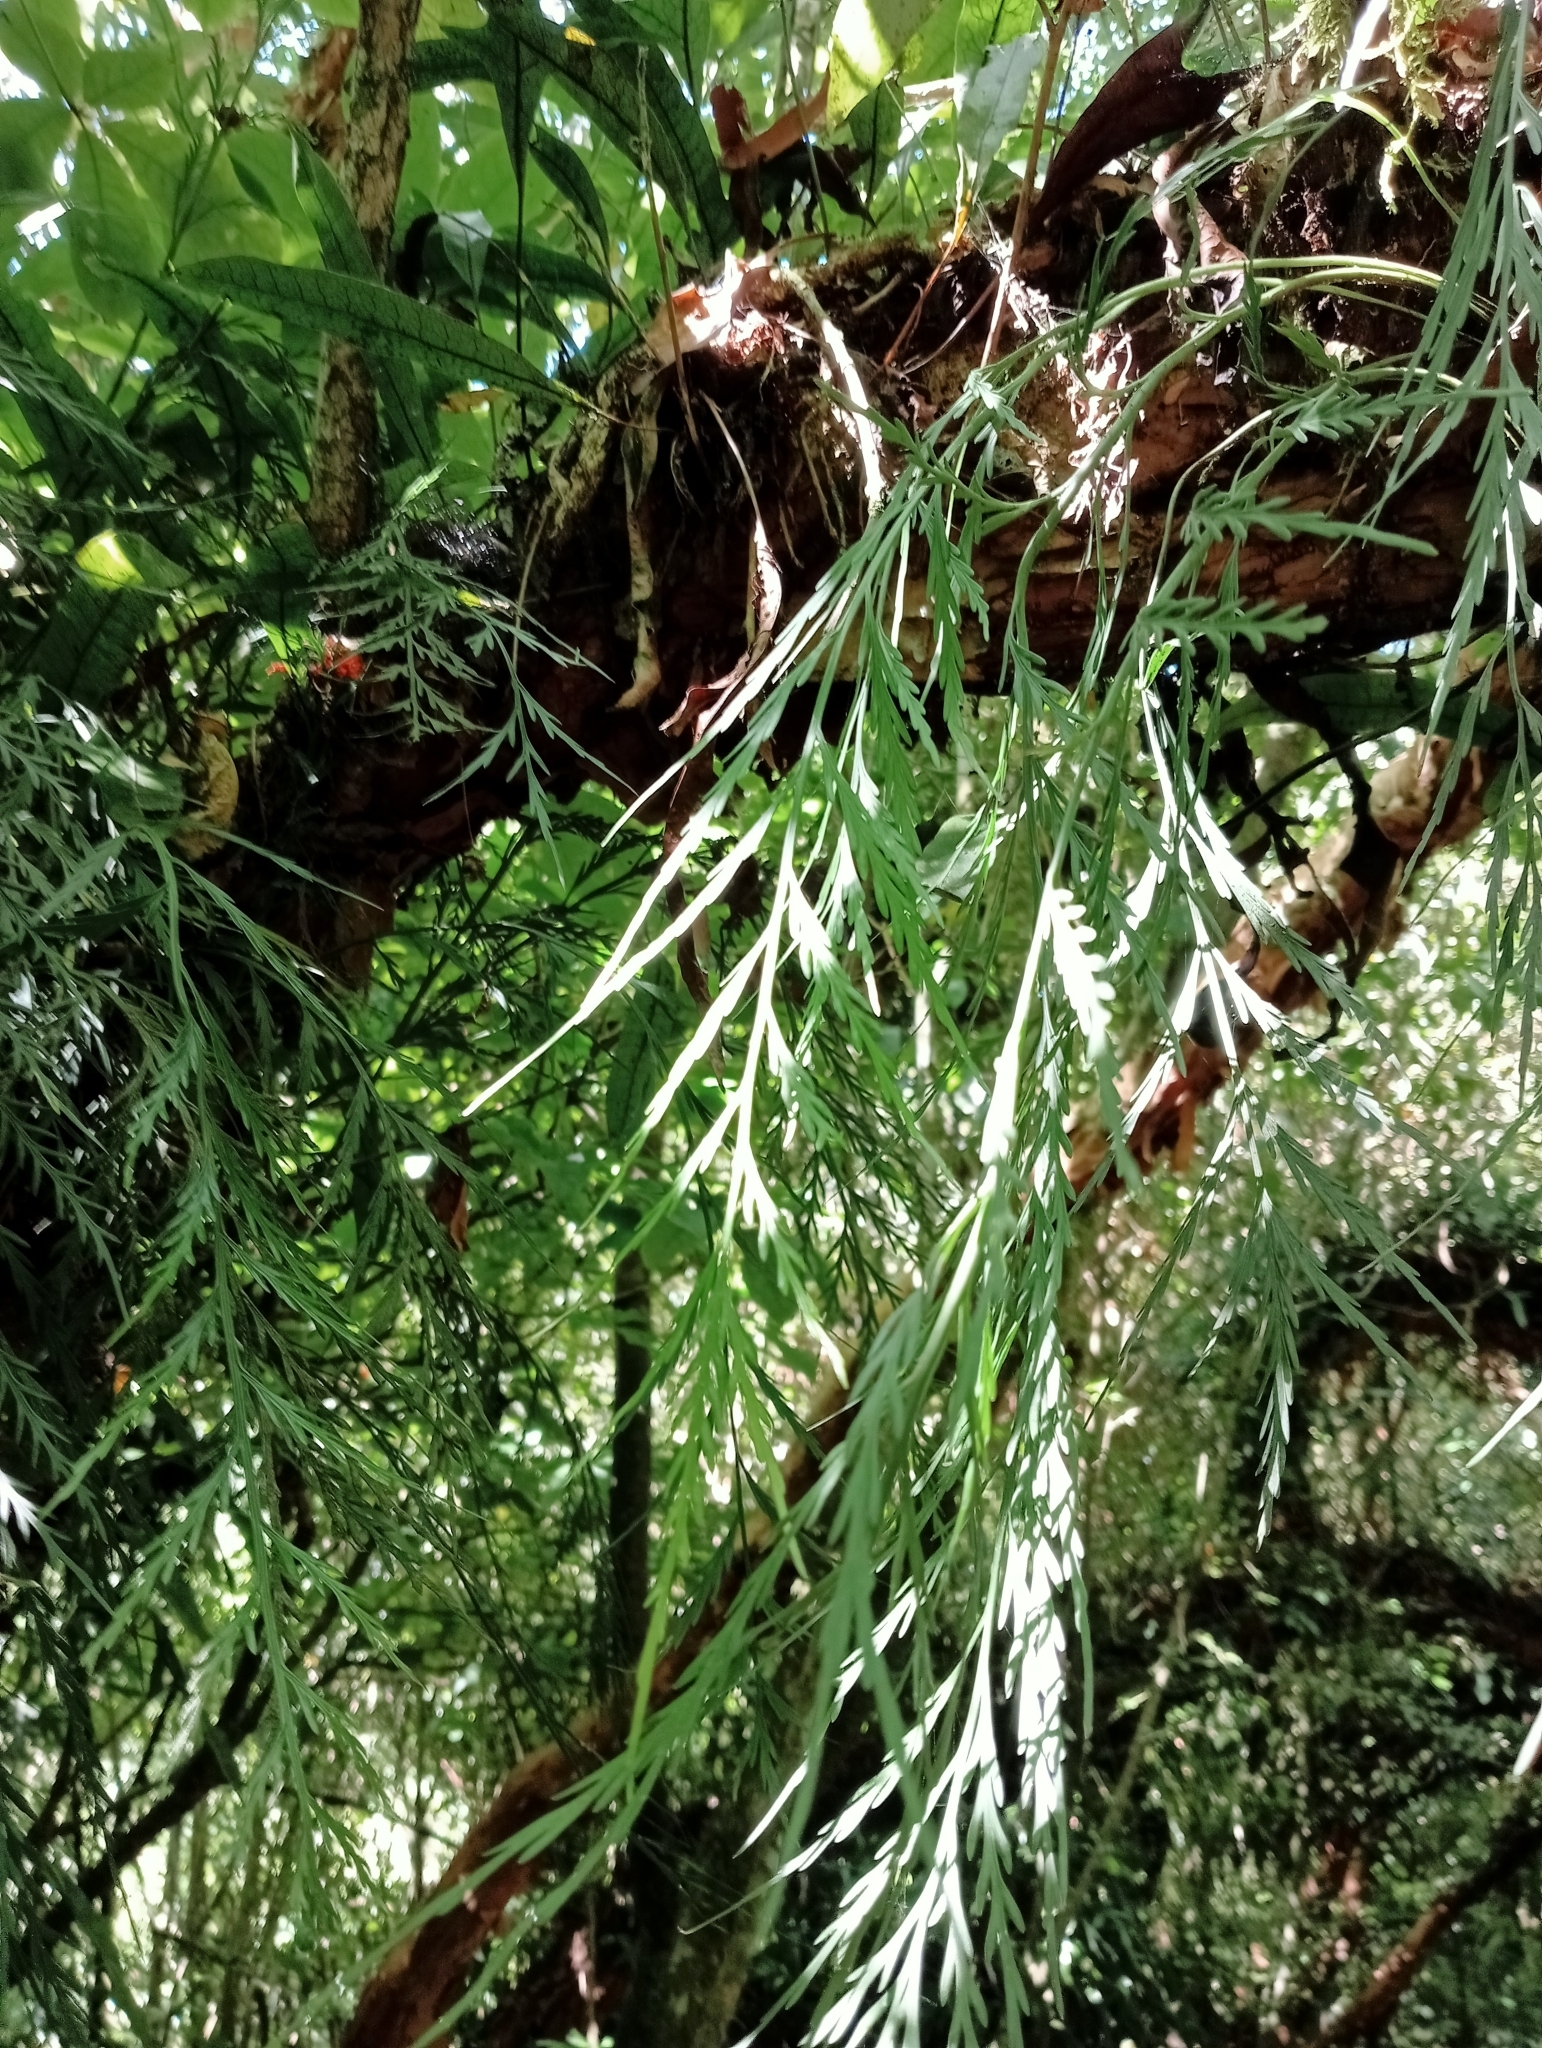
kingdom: Plantae
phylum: Tracheophyta
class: Polypodiopsida
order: Polypodiales
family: Aspleniaceae
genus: Asplenium
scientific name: Asplenium flaccidum
